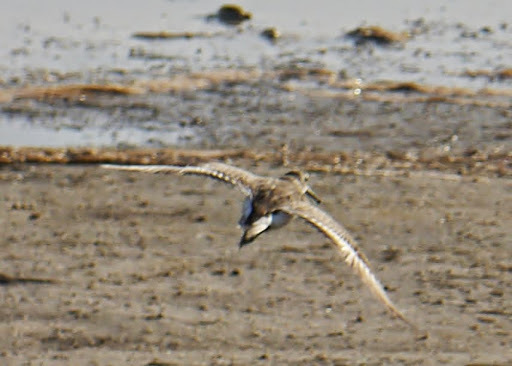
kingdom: Animalia
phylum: Chordata
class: Aves
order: Charadriiformes
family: Scolopacidae
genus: Calidris
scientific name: Calidris alpina
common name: Dunlin
